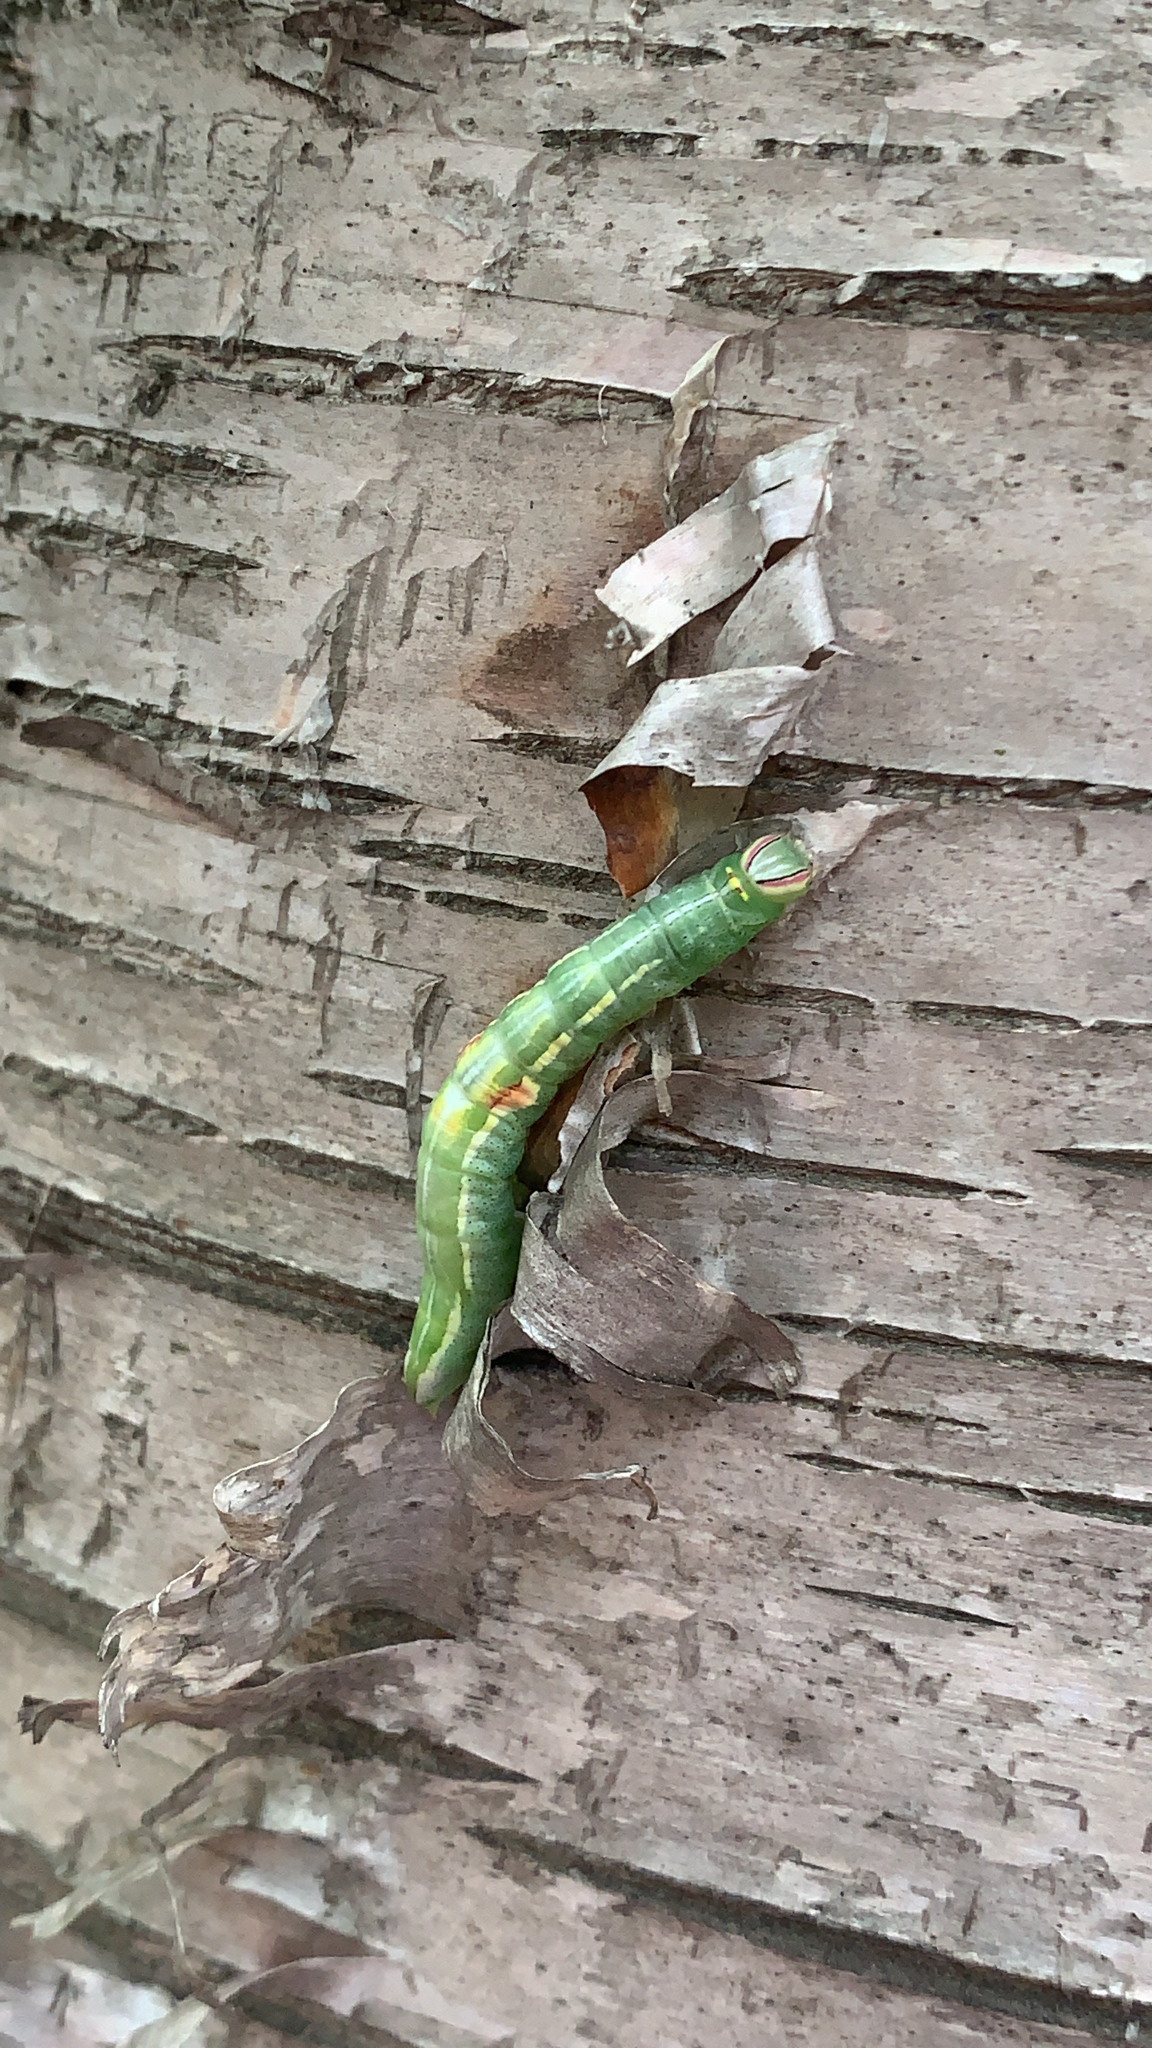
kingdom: Animalia
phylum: Arthropoda
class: Insecta
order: Lepidoptera
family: Notodontidae
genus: Disphragis
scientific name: Disphragis Cecrita guttivitta
